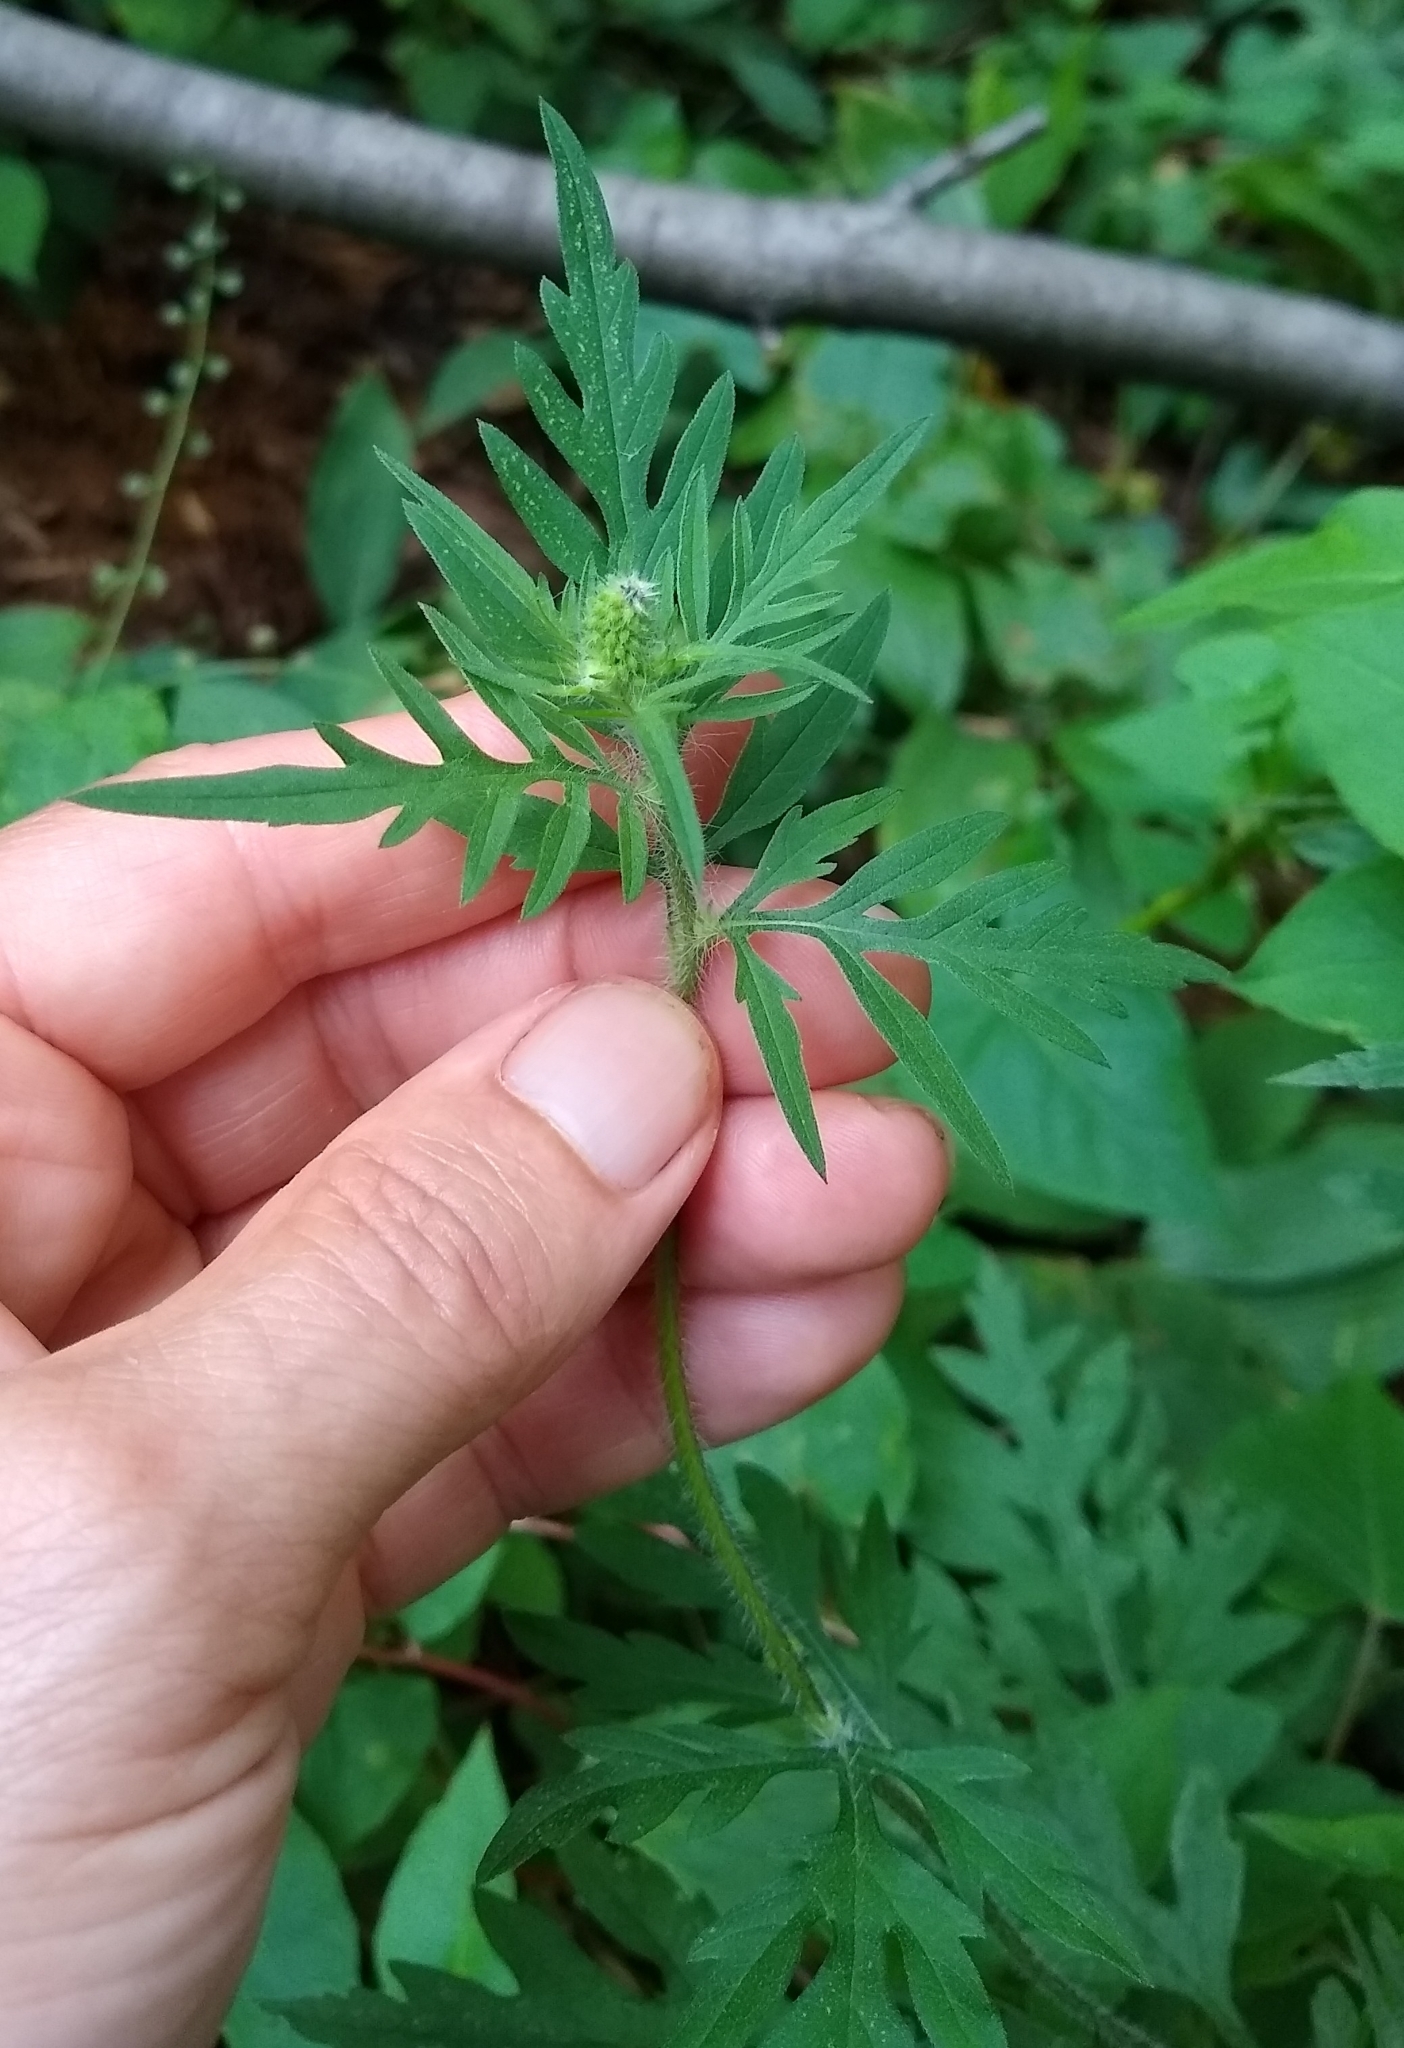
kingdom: Plantae
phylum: Tracheophyta
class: Magnoliopsida
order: Asterales
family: Asteraceae
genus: Ambrosia
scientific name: Ambrosia artemisiifolia
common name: Annual ragweed
